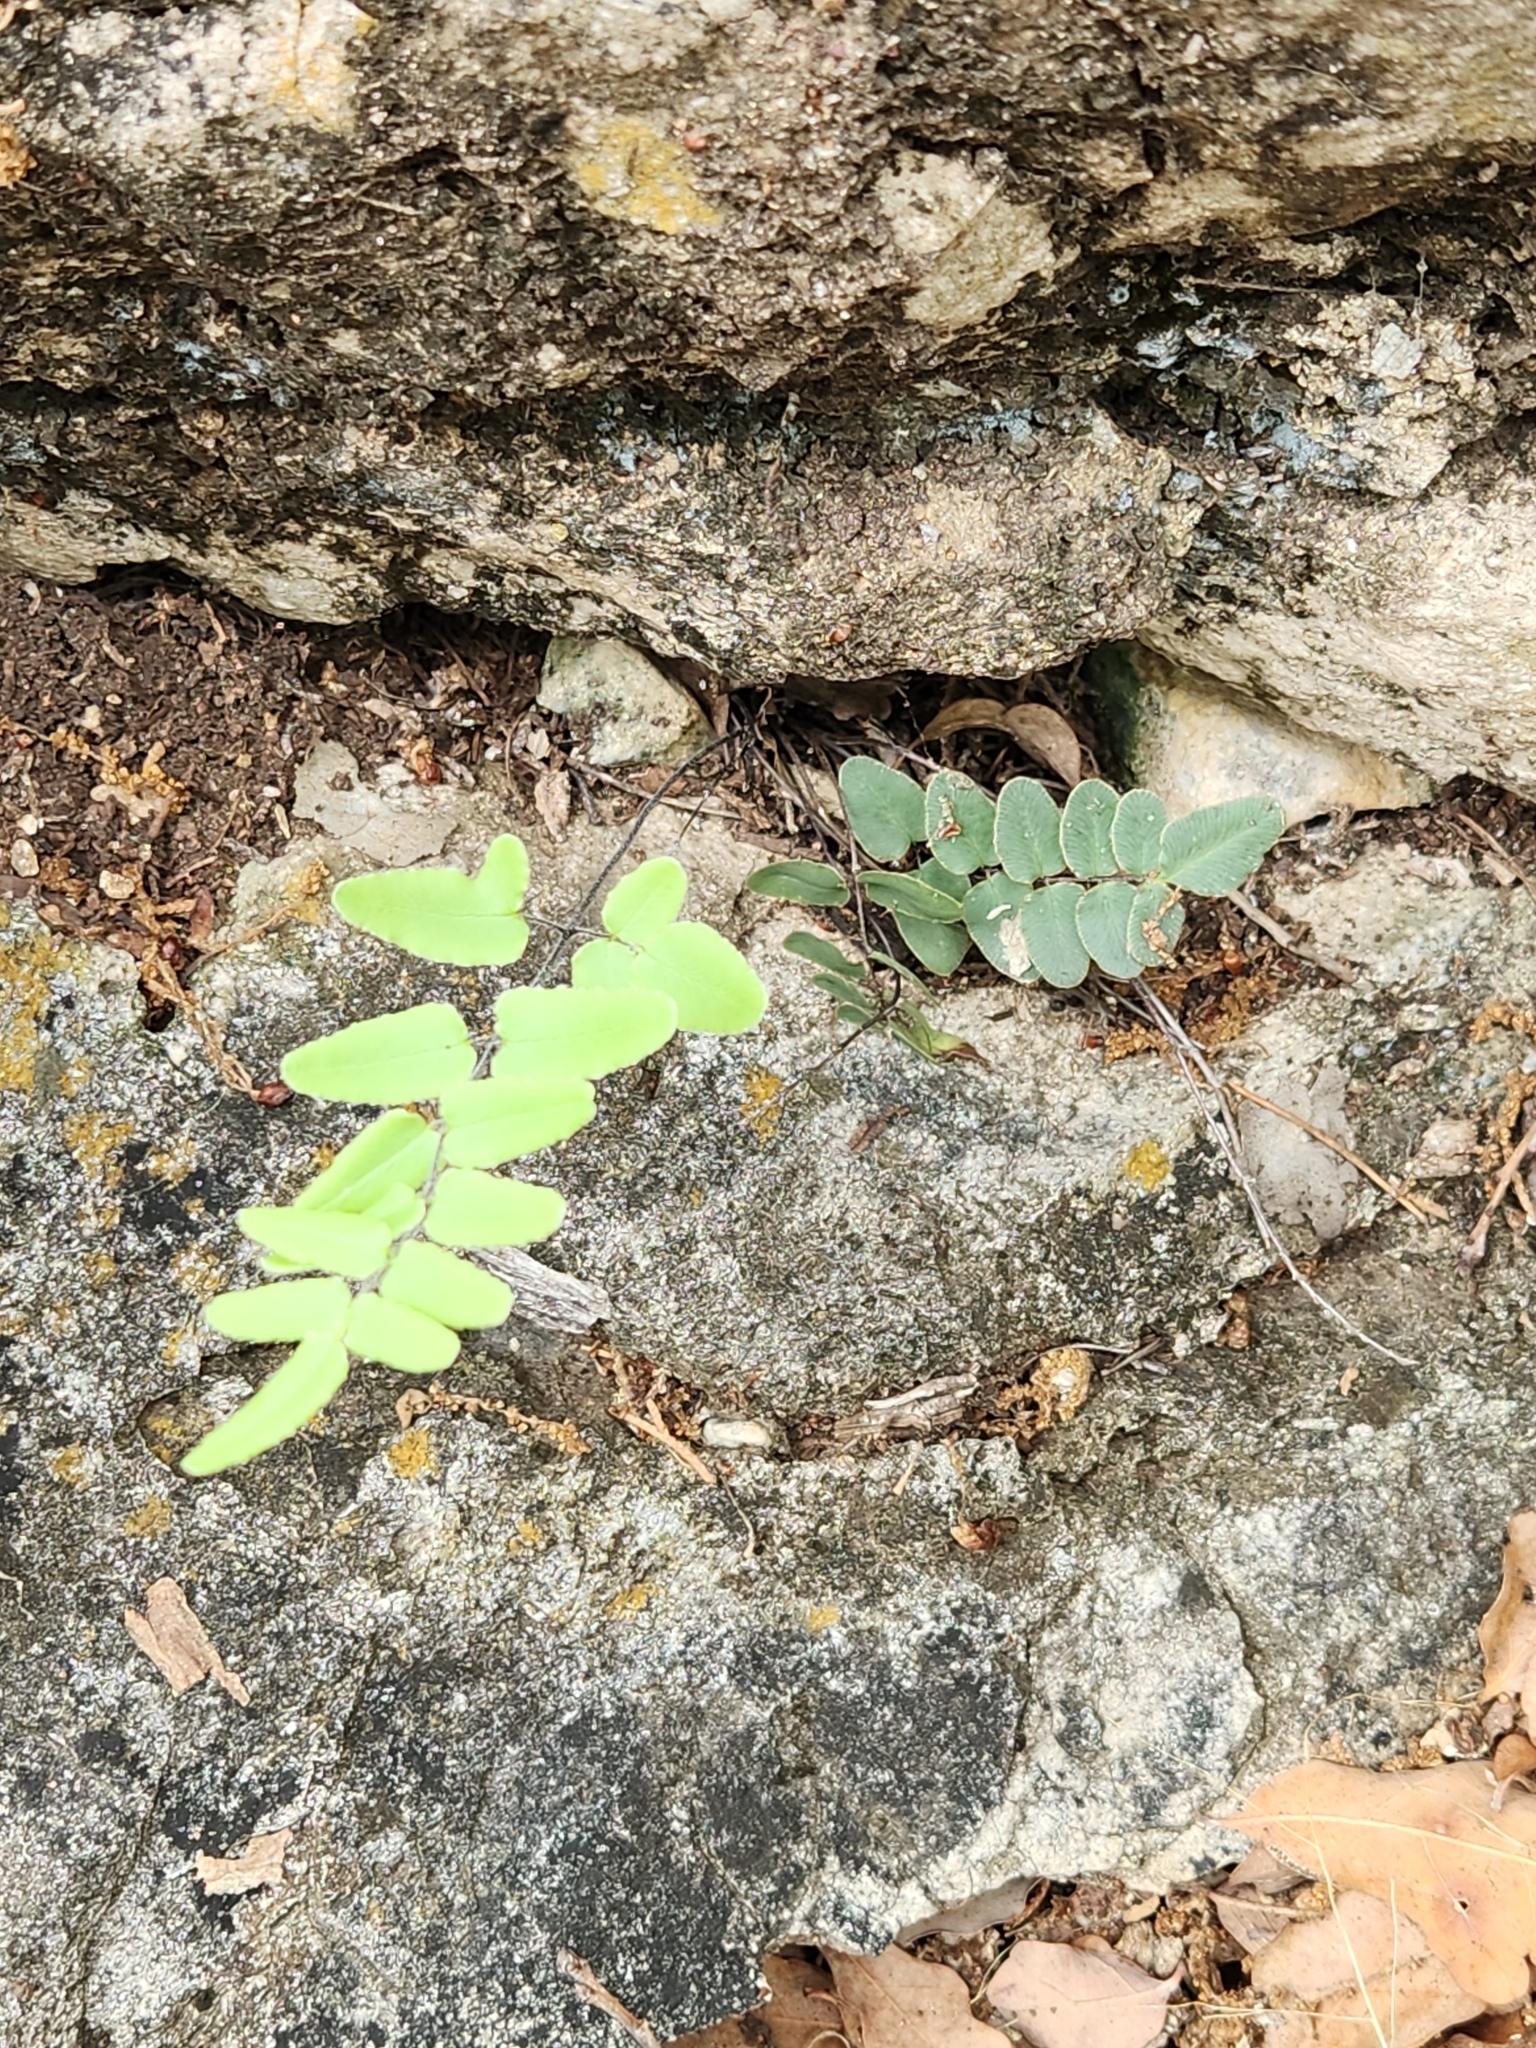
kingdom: Plantae
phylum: Tracheophyta
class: Polypodiopsida
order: Polypodiales
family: Pteridaceae
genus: Pellaea
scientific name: Pellaea atropurpurea
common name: Hairy cliffbrake
